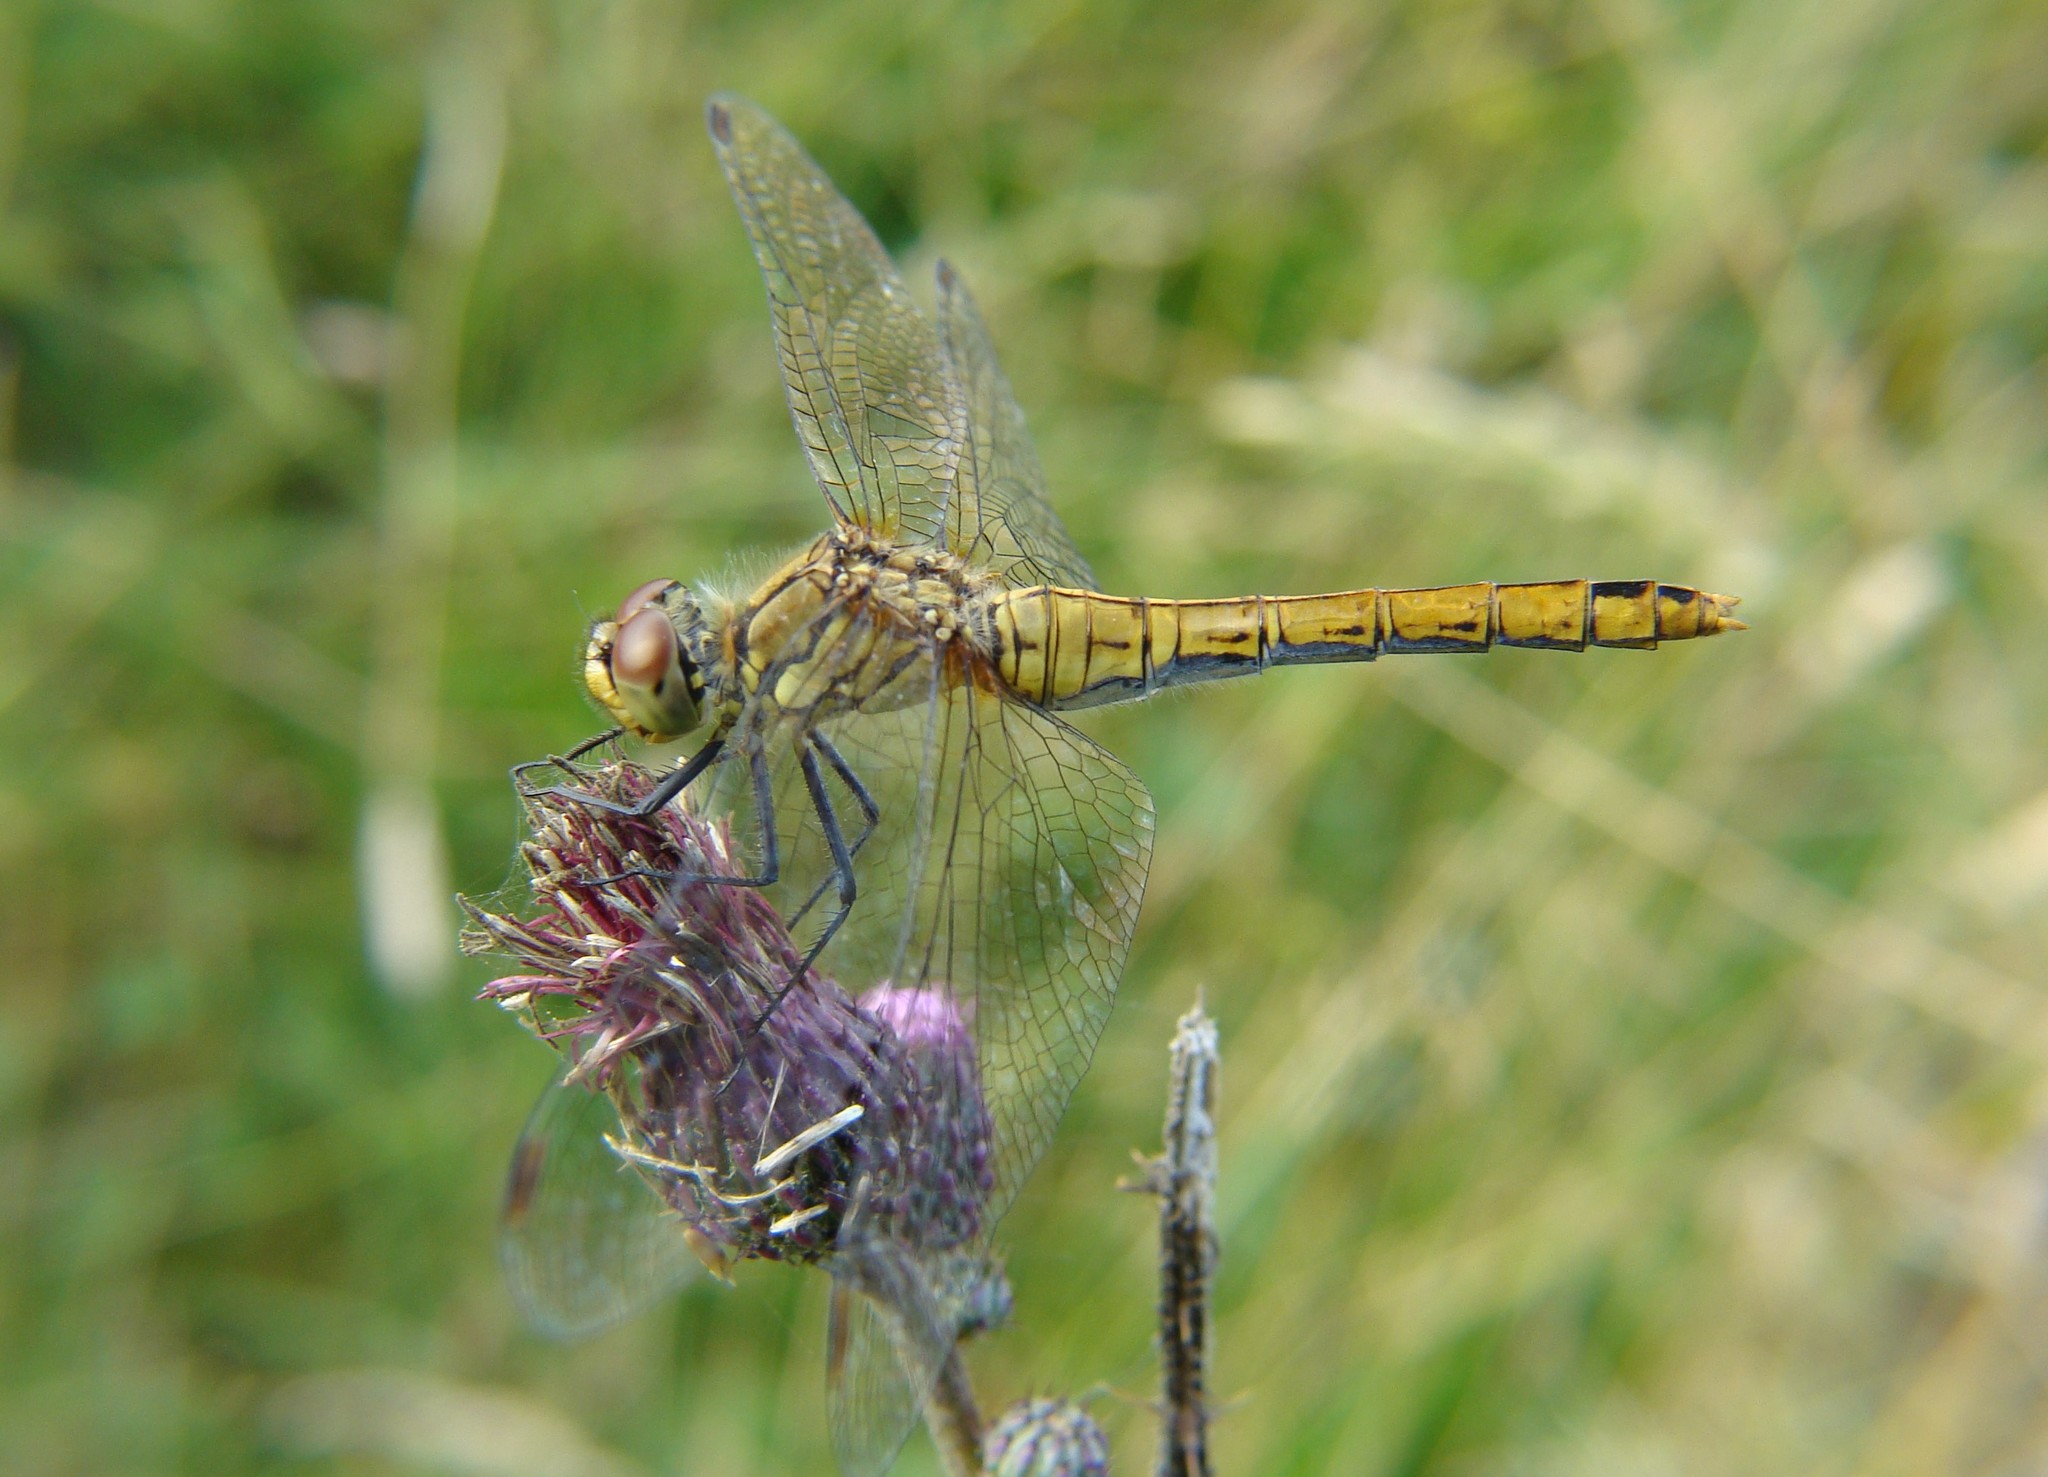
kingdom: Animalia
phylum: Arthropoda
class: Insecta
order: Odonata
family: Libellulidae
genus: Sympetrum
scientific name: Sympetrum sanguineum
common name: Ruddy darter
